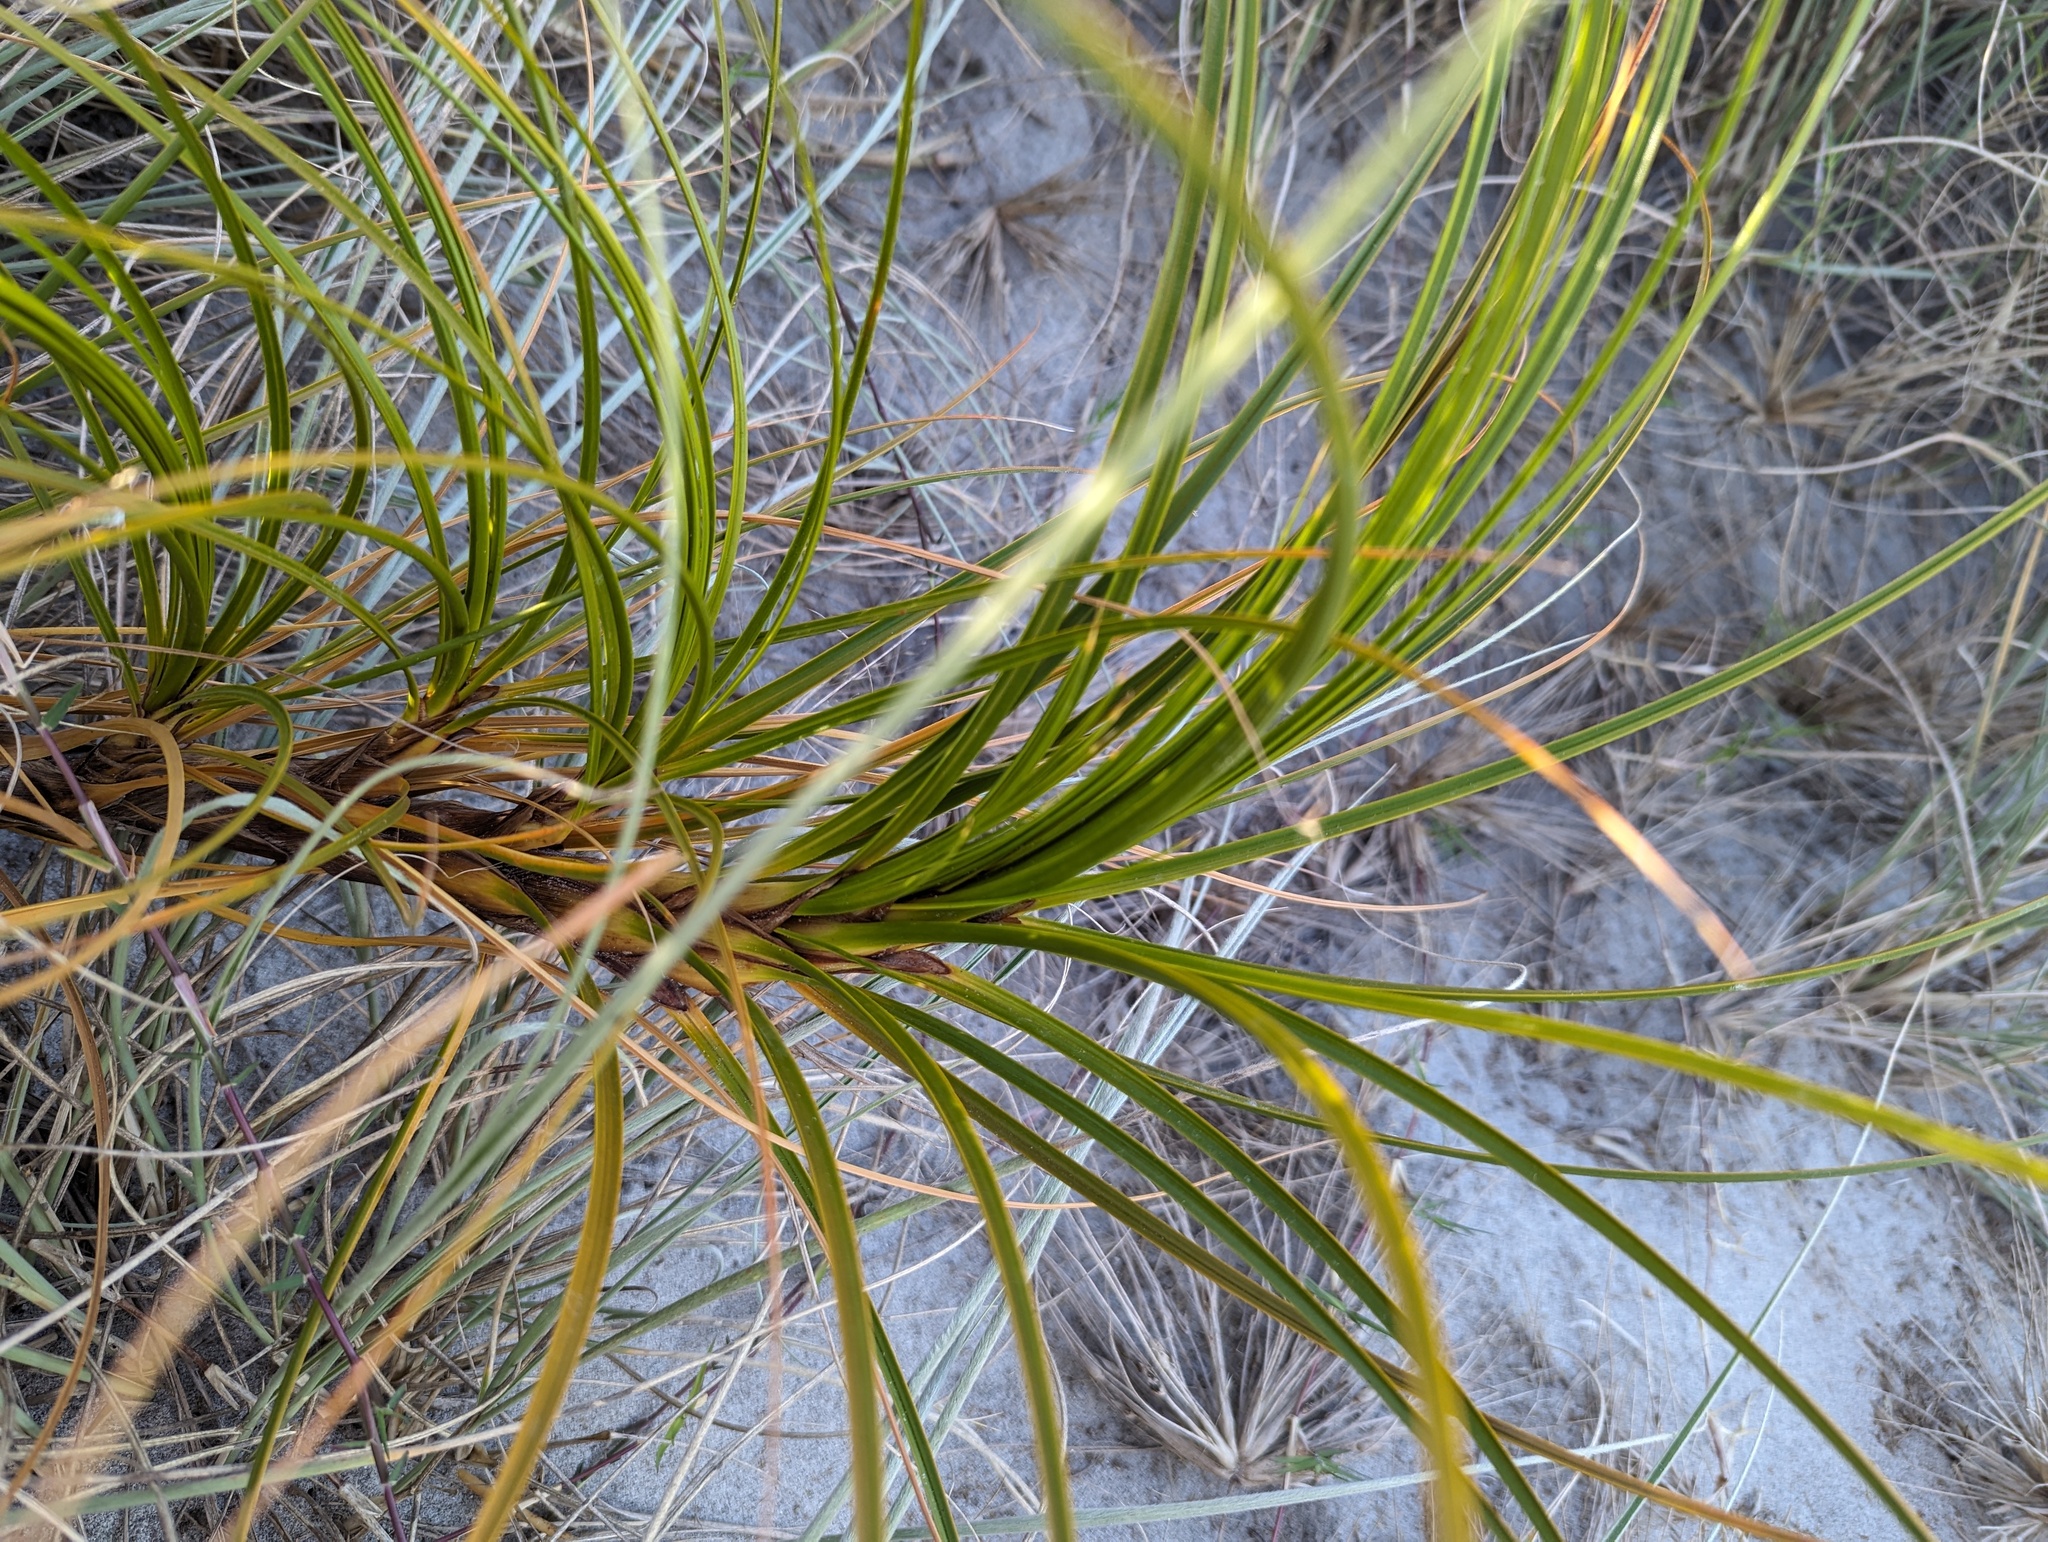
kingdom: Plantae
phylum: Tracheophyta
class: Liliopsida
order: Poales
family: Cyperaceae
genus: Ficinia
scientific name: Ficinia spiralis
